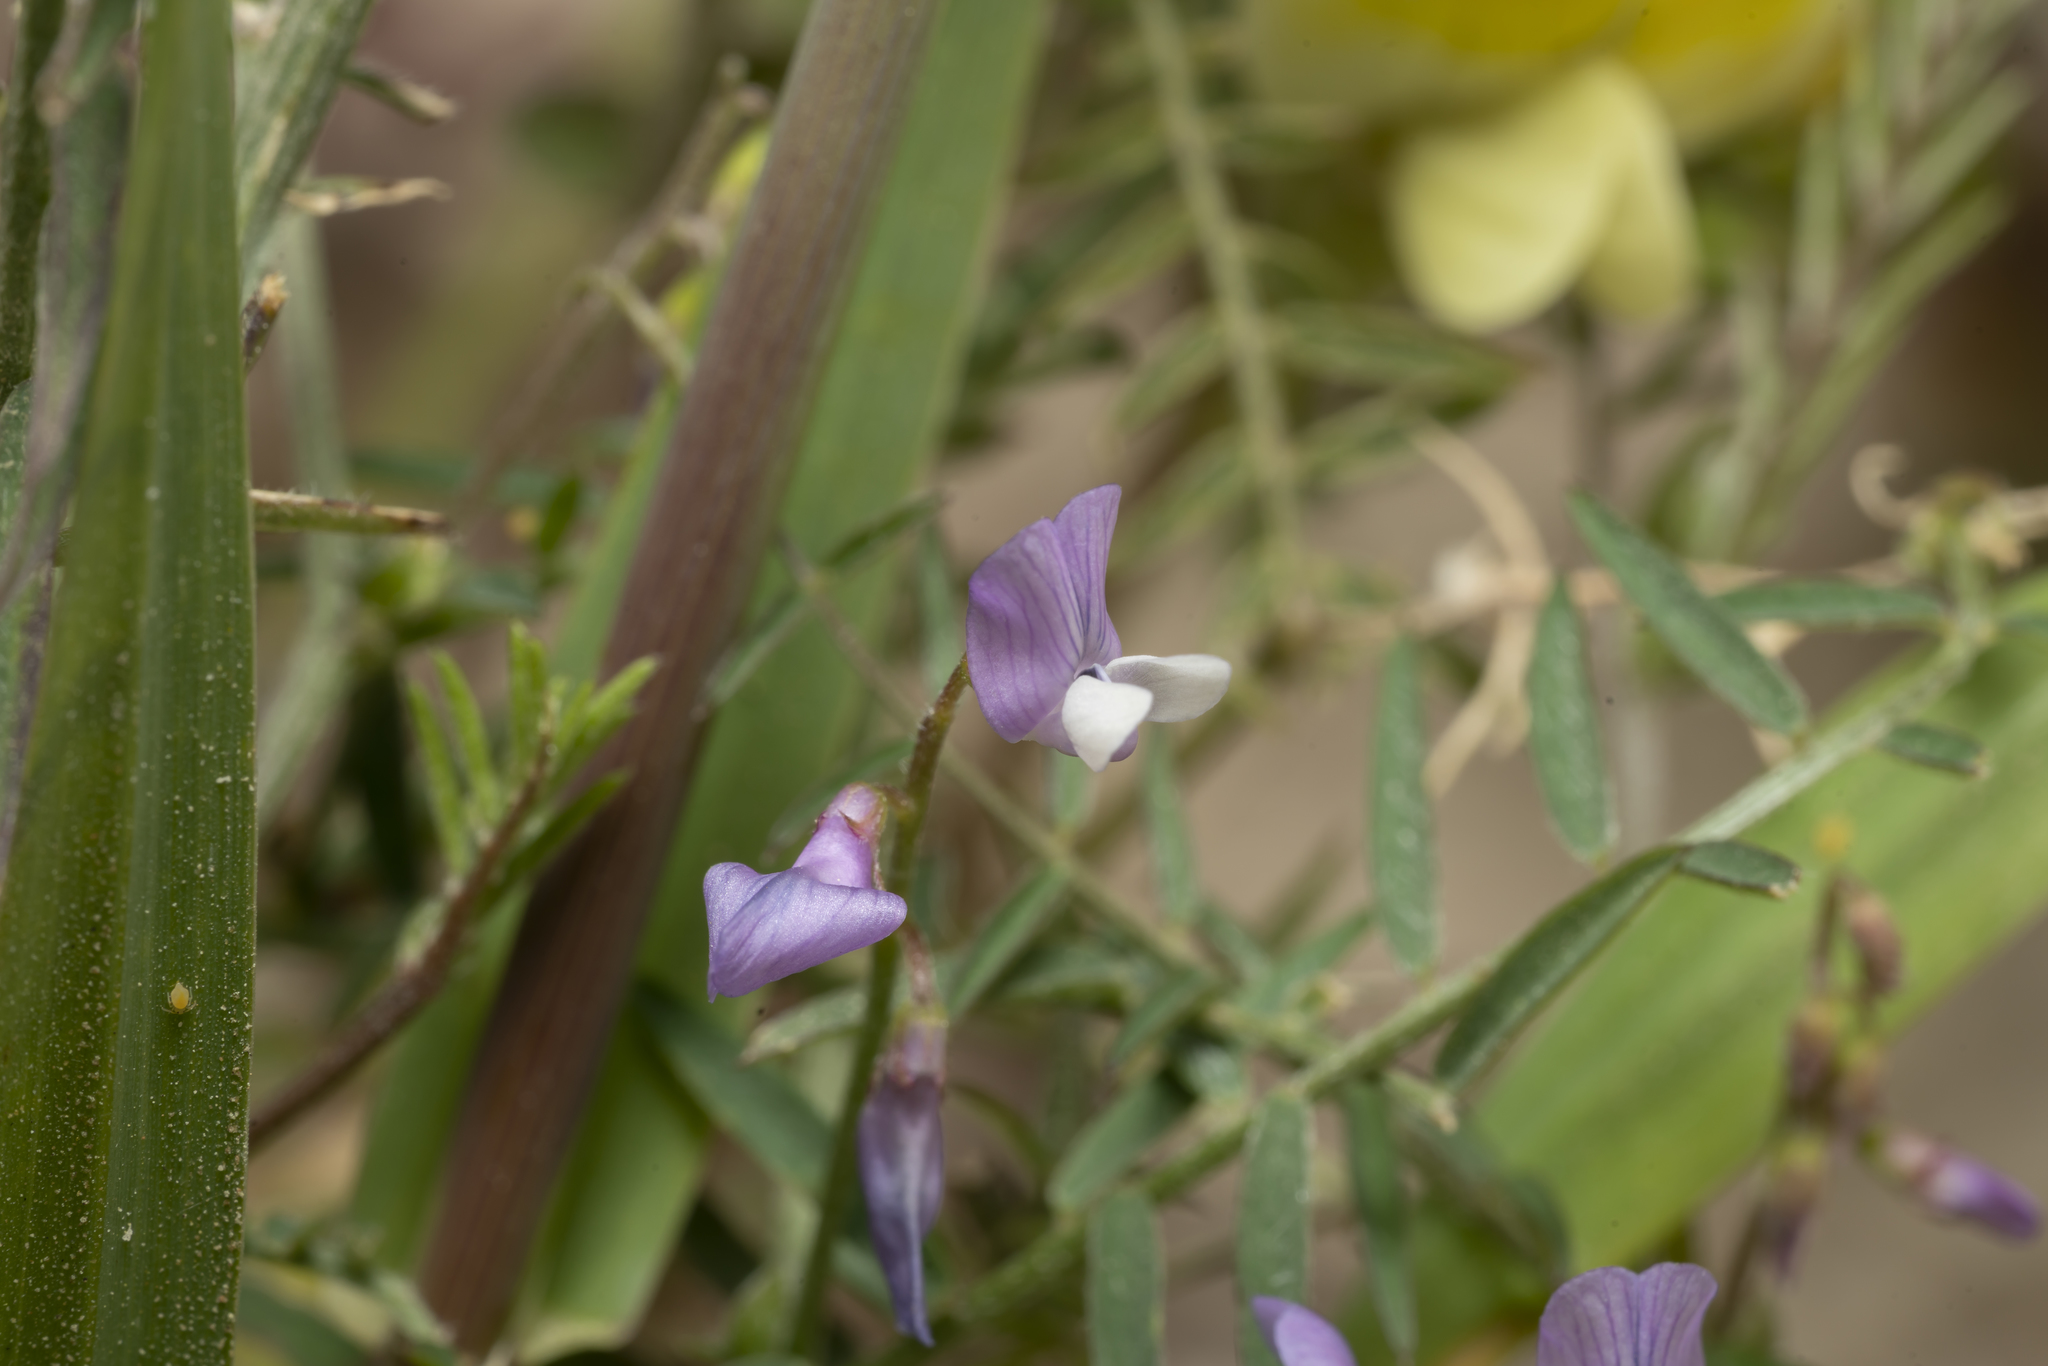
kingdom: Plantae
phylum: Tracheophyta
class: Magnoliopsida
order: Fabales
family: Fabaceae
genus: Vicia
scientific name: Vicia palaestina
